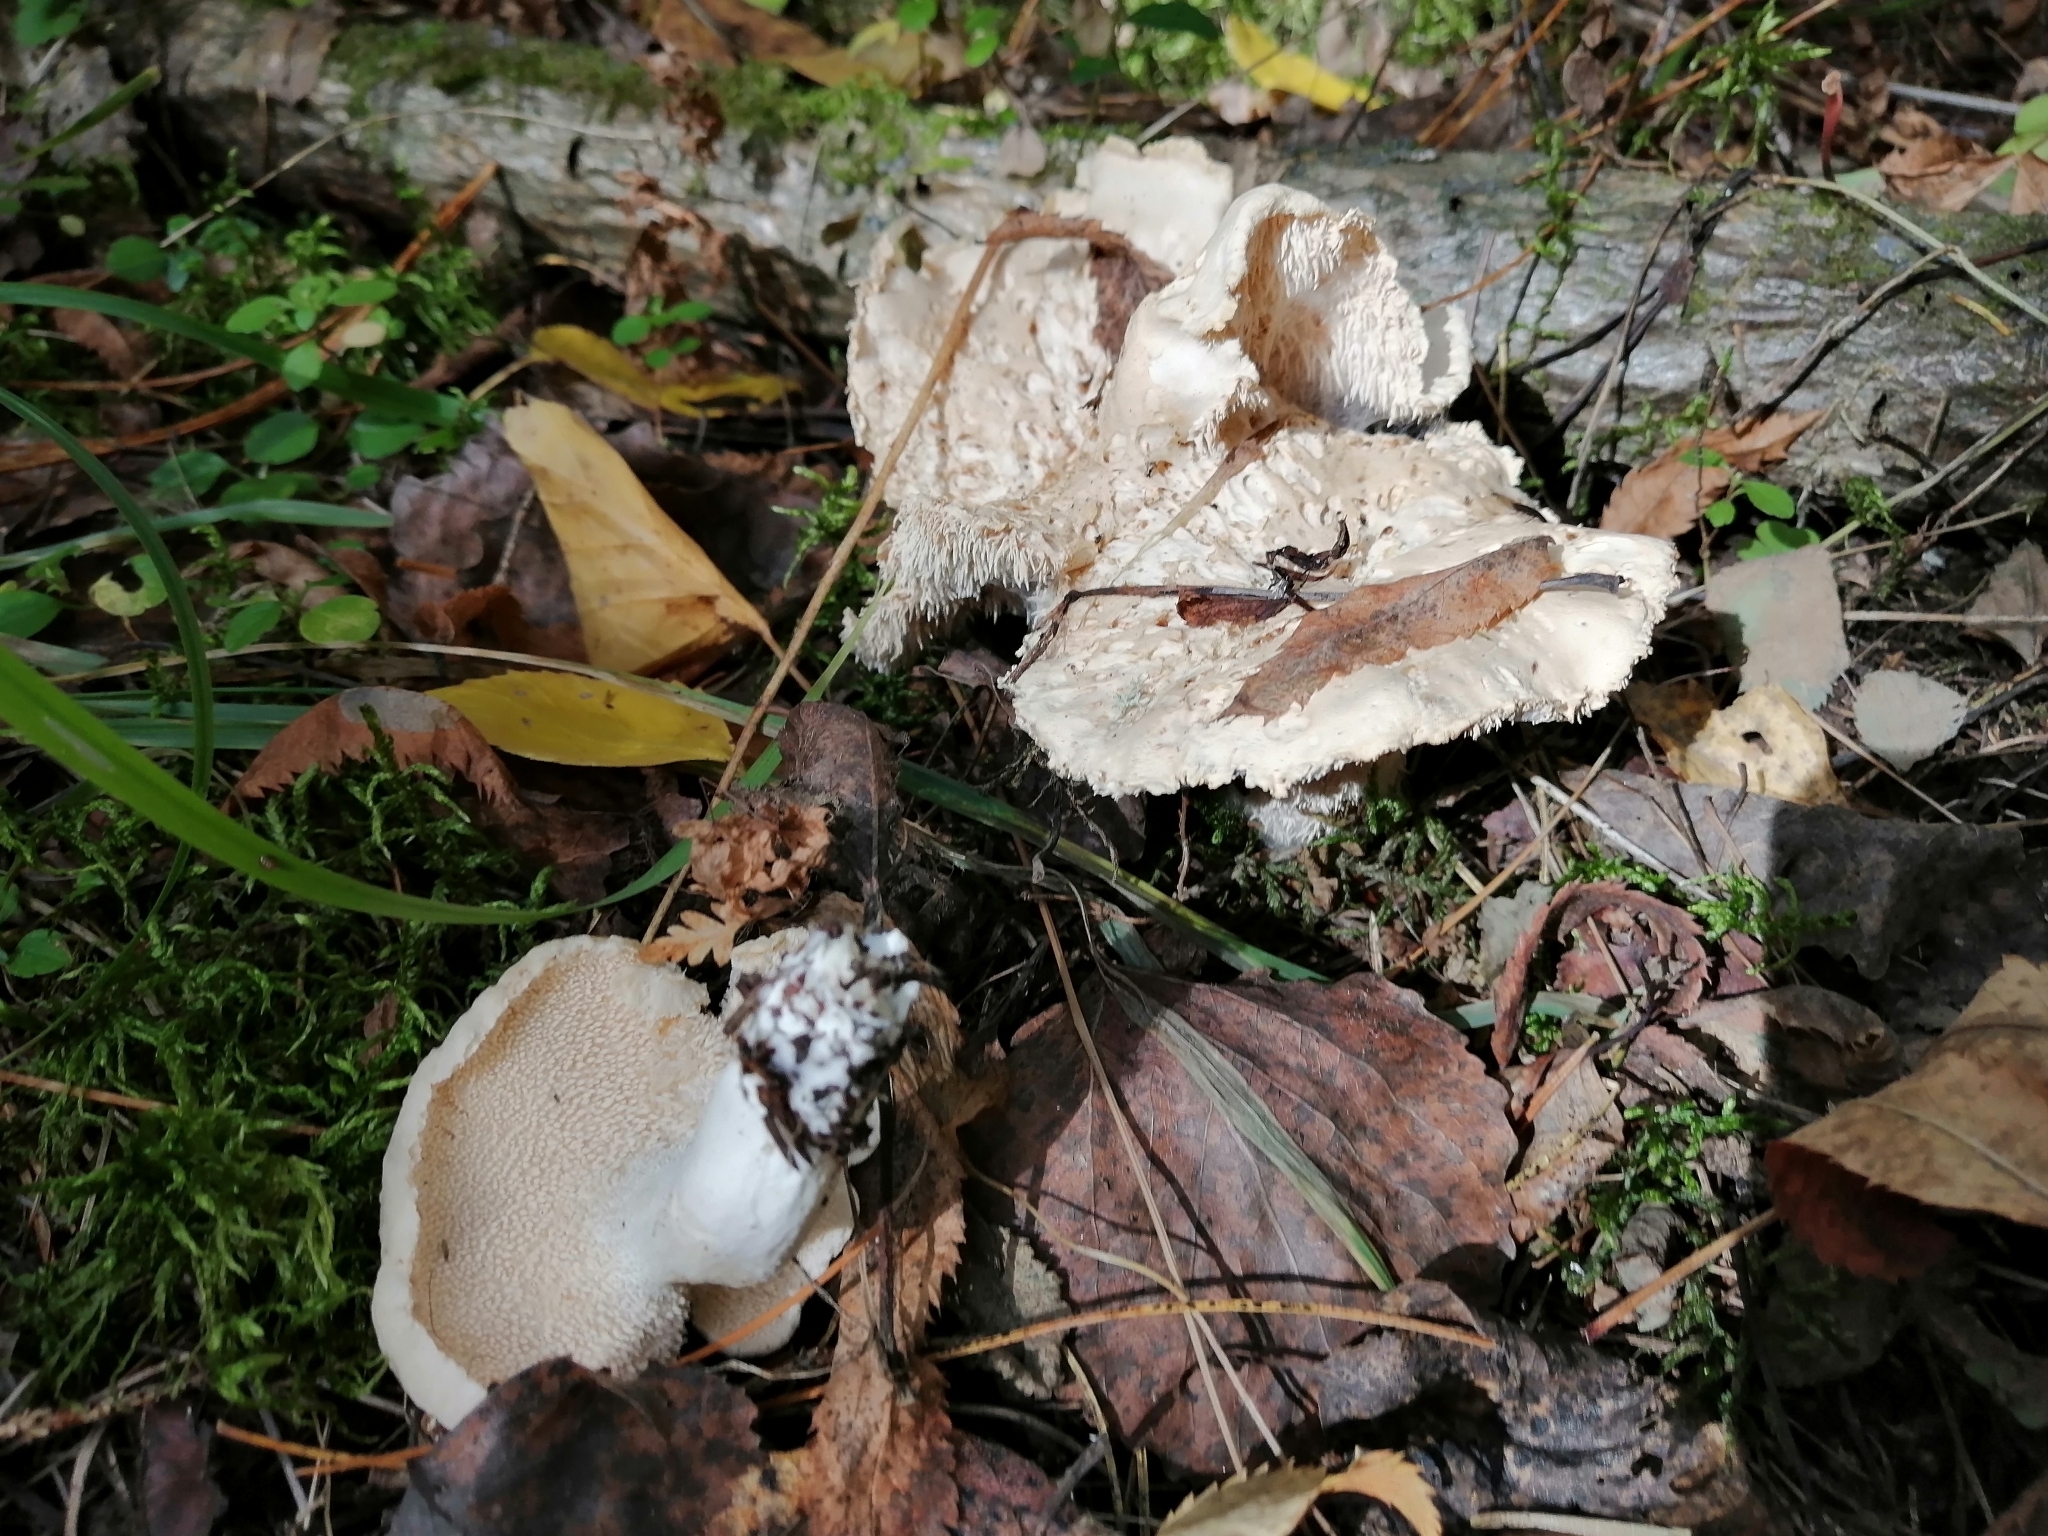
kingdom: Fungi
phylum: Basidiomycota
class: Agaricomycetes
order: Cantharellales
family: Hydnaceae
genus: Hydnum
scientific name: Hydnum repandum
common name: Wood hedgehog
